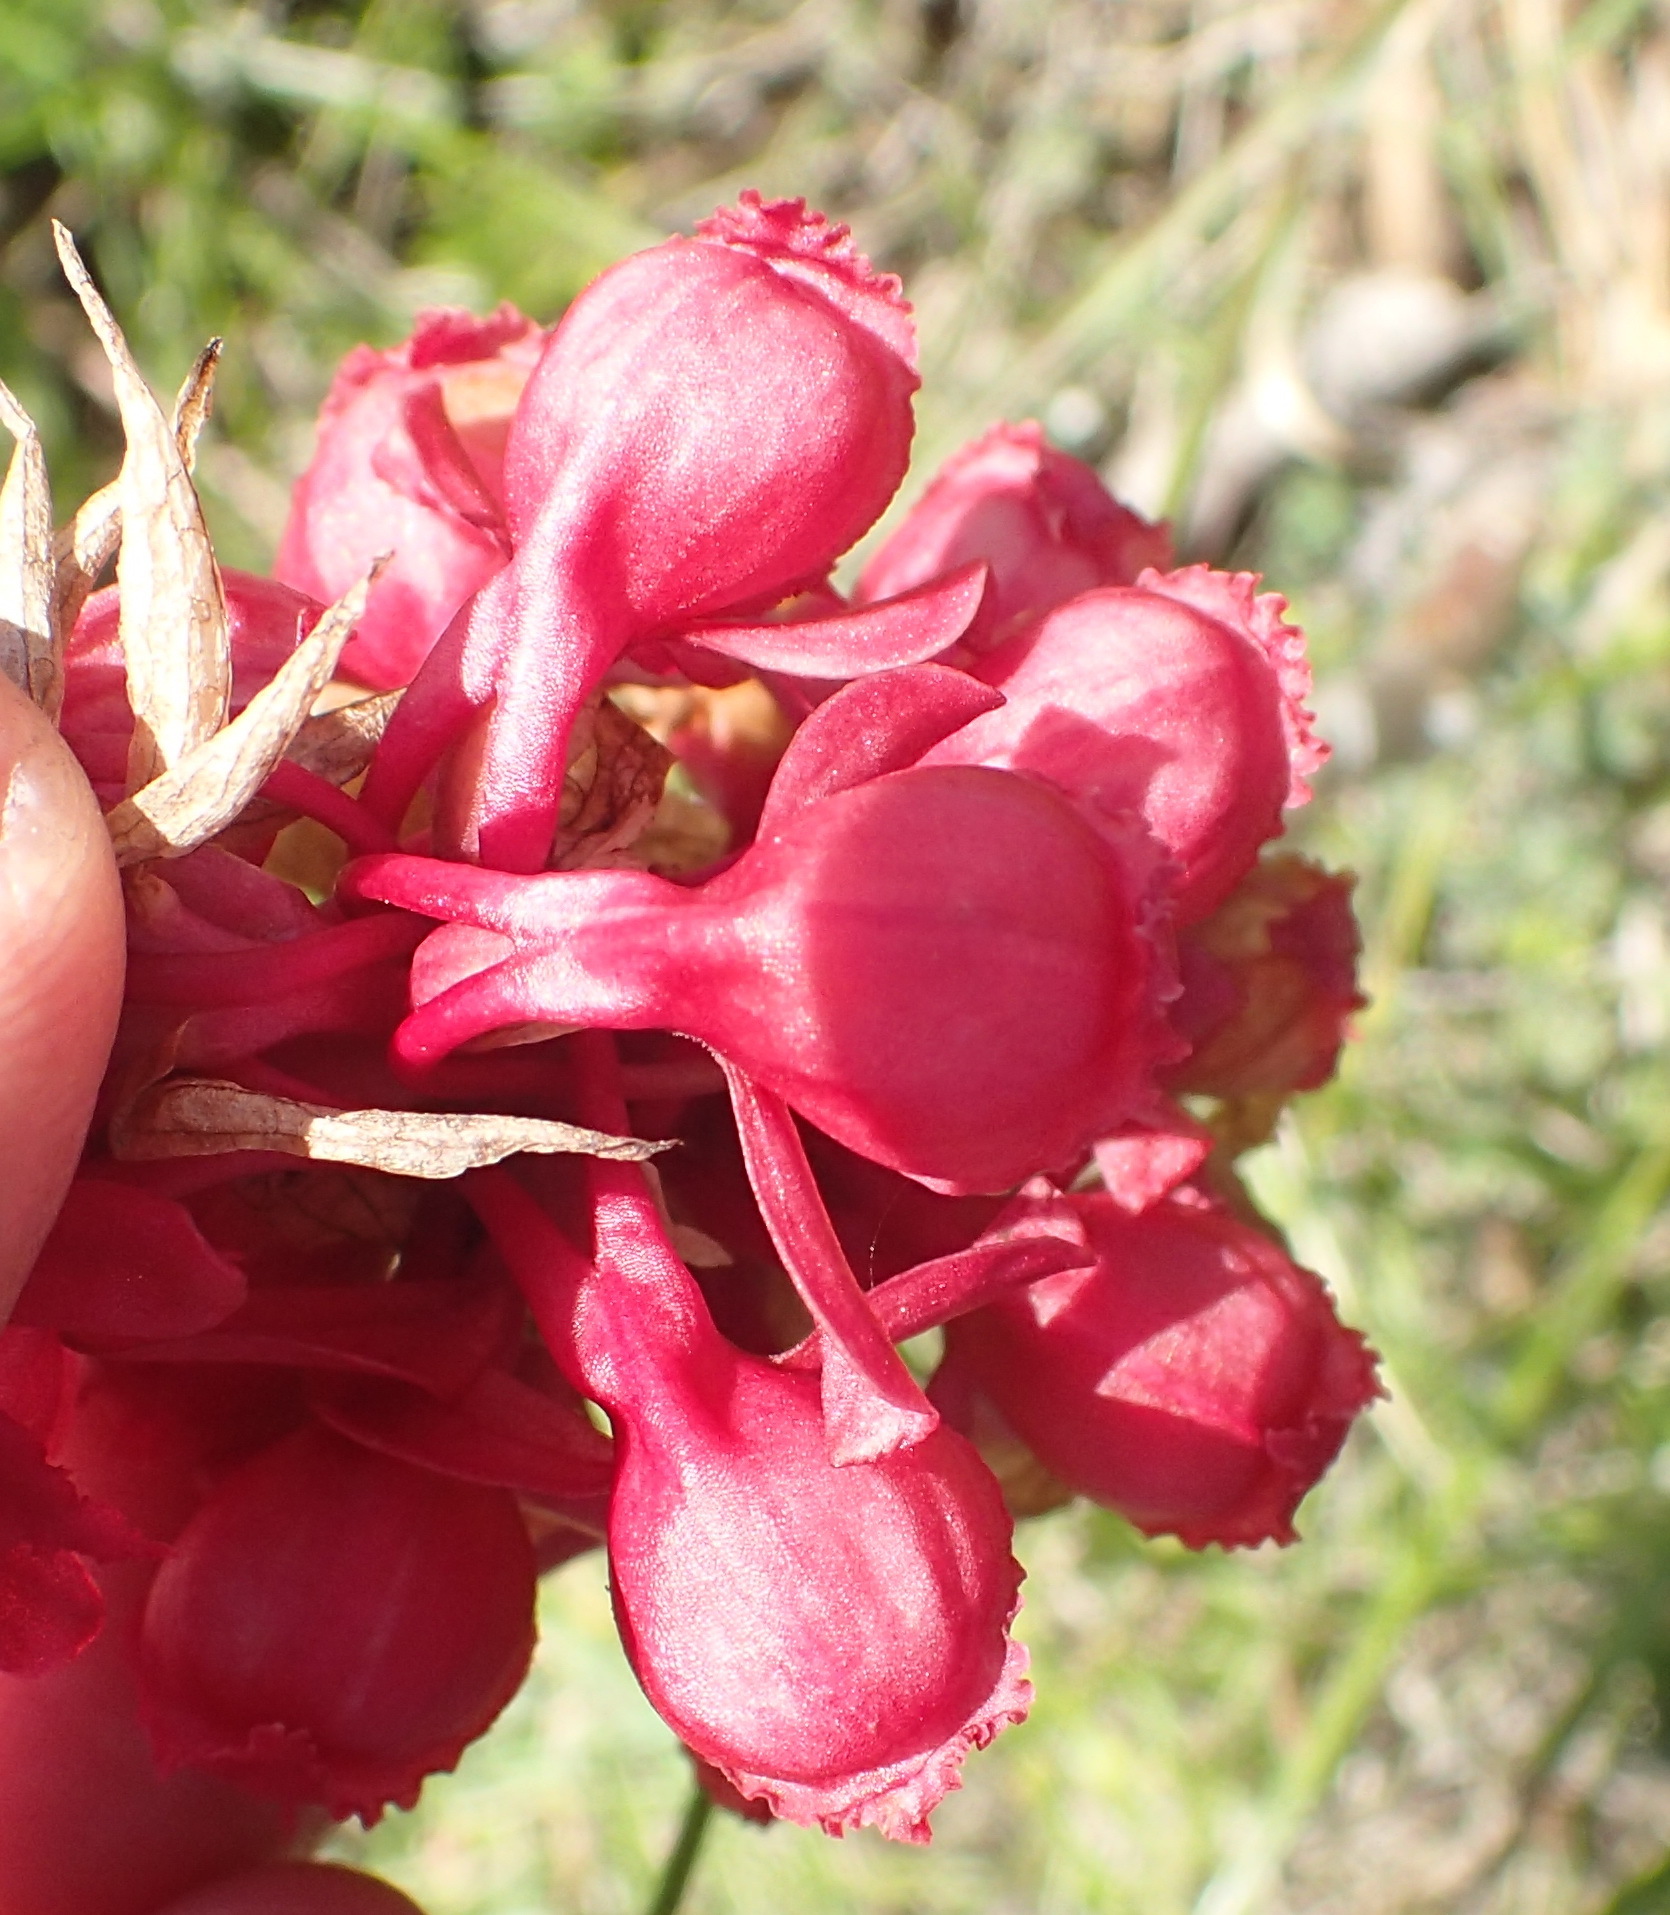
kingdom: Plantae
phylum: Tracheophyta
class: Liliopsida
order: Asparagales
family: Orchidaceae
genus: Satyrium
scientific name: Satyrium princeps
